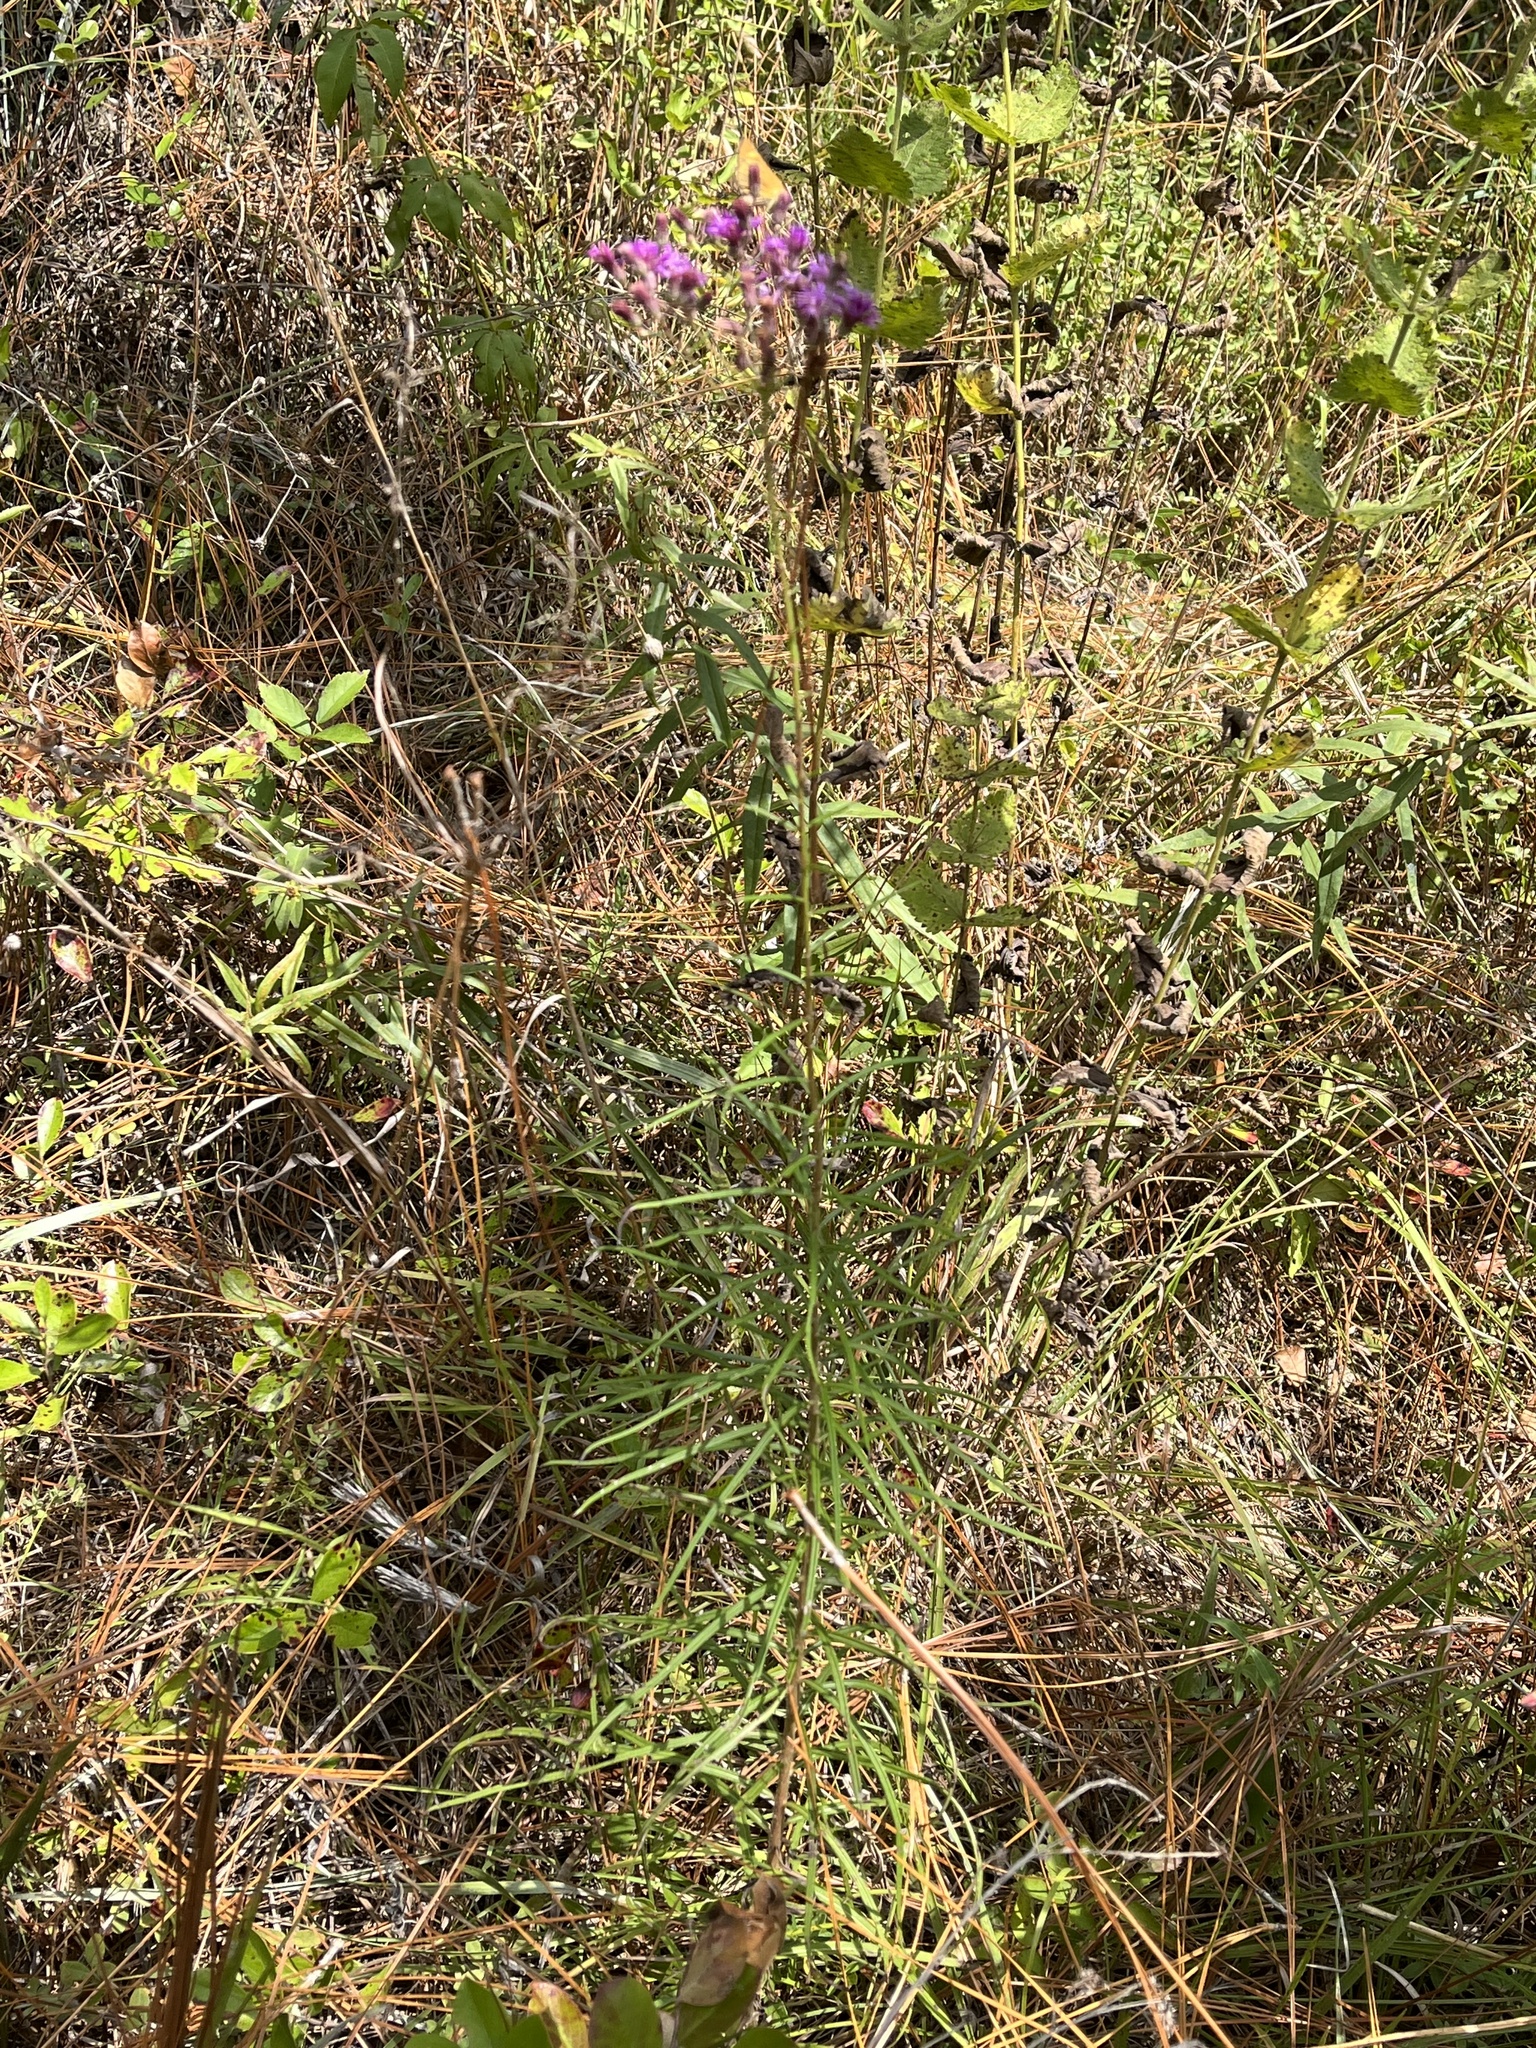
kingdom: Plantae
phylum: Tracheophyta
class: Magnoliopsida
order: Asterales
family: Asteraceae
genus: Vernonia
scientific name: Vernonia angustifolia
